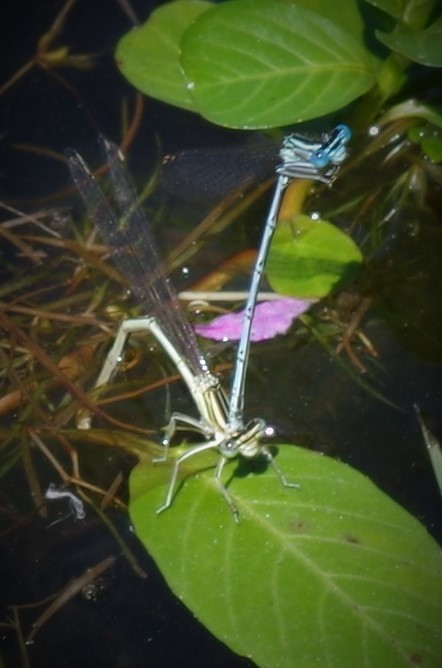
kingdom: Animalia
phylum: Arthropoda
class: Insecta
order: Odonata
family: Platycnemididae
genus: Platycnemis
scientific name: Platycnemis pennipes
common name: White-legged damselfly
